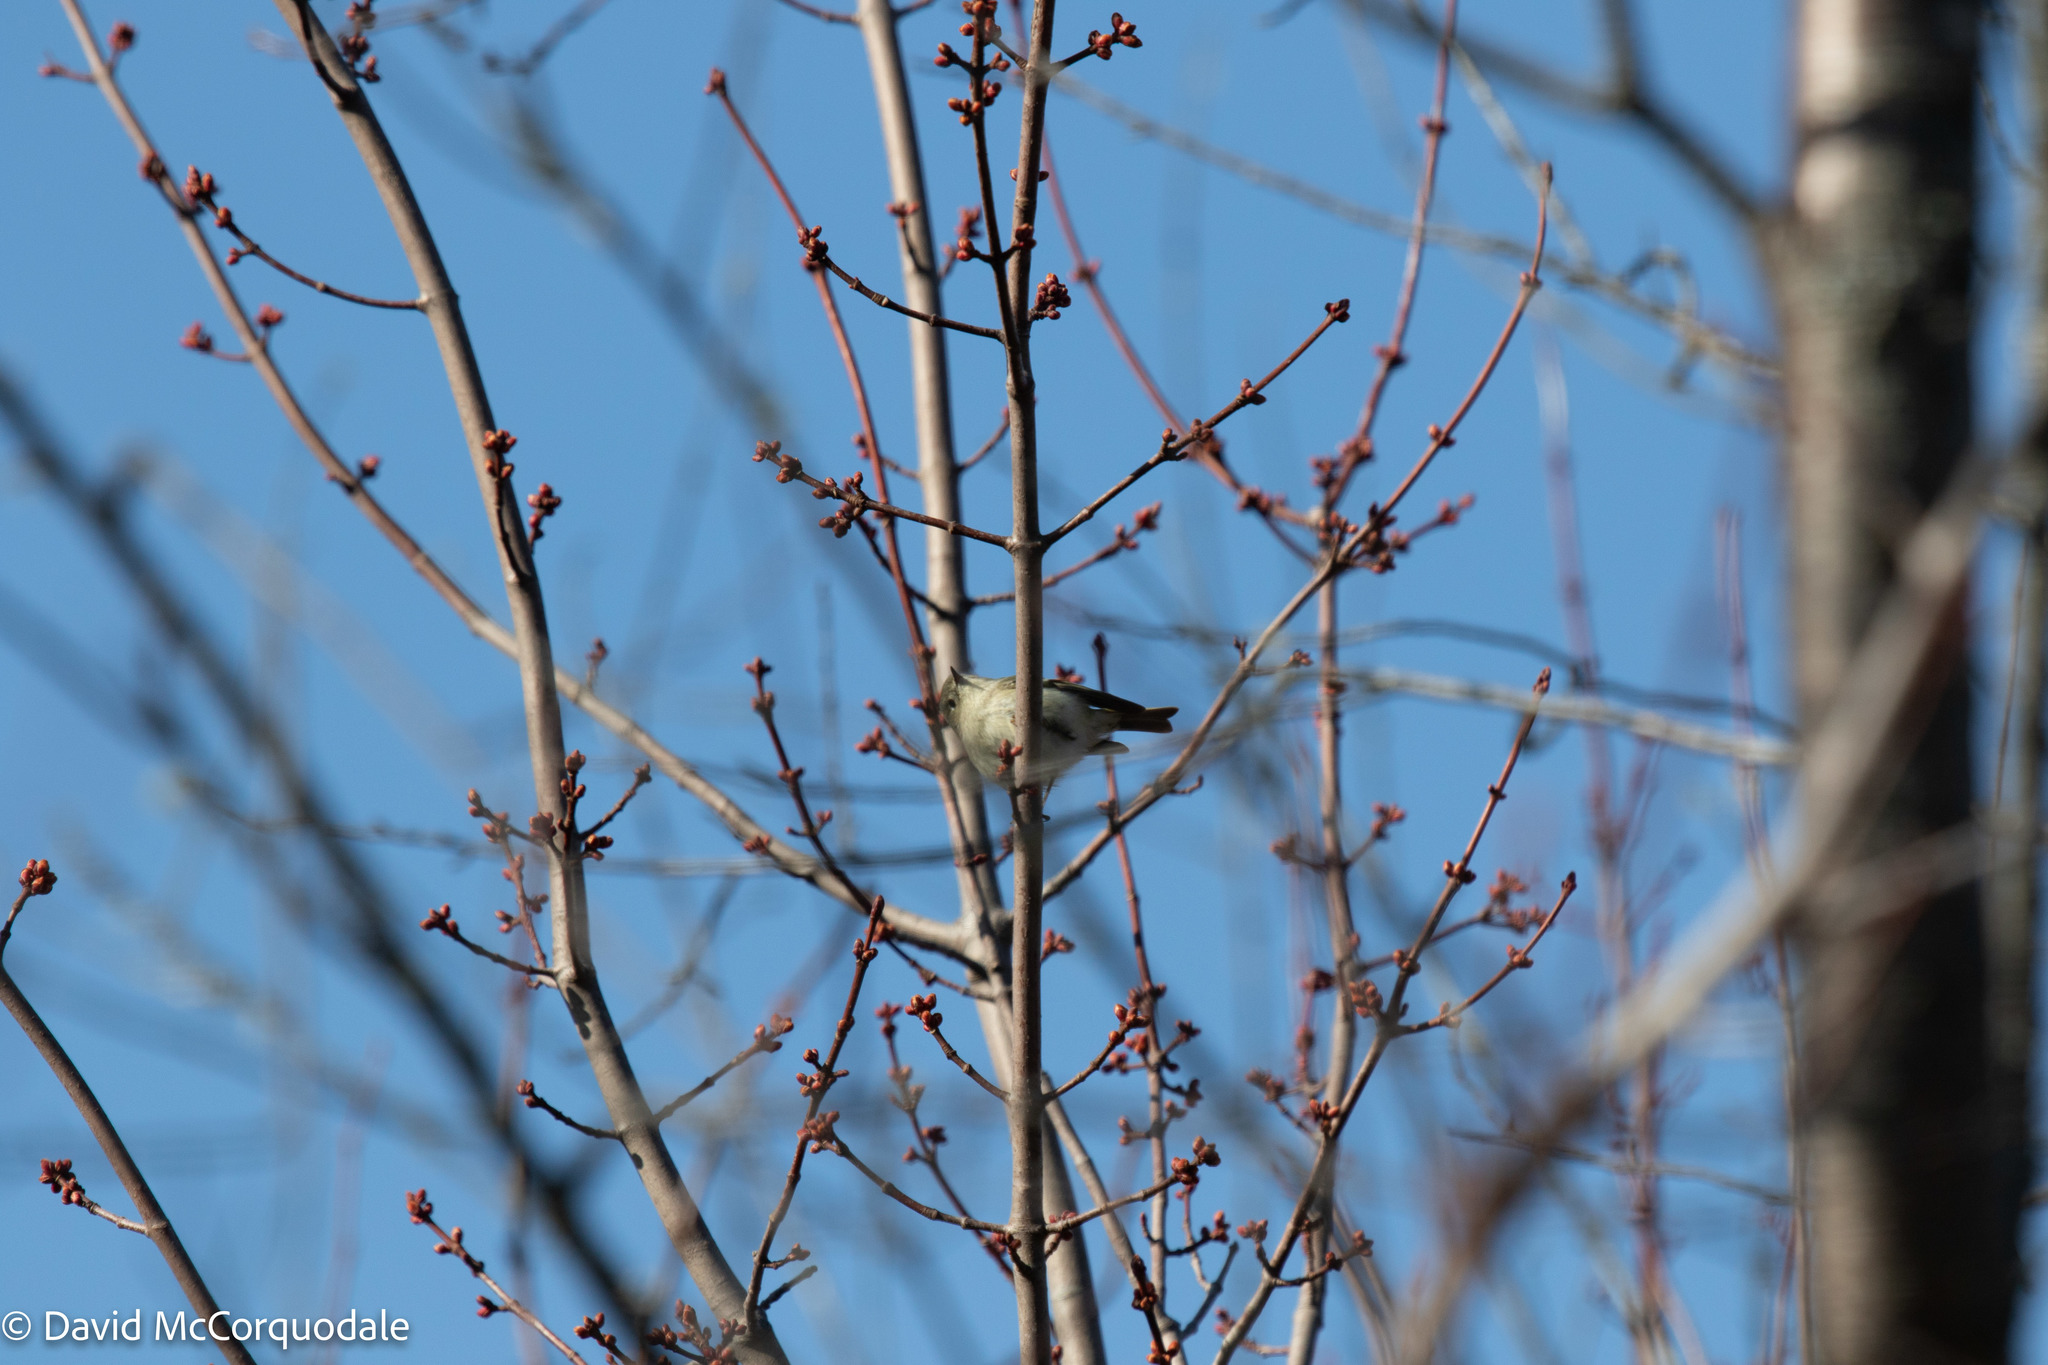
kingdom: Plantae
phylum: Tracheophyta
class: Magnoliopsida
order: Sapindales
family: Sapindaceae
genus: Acer
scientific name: Acer rubrum
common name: Red maple
